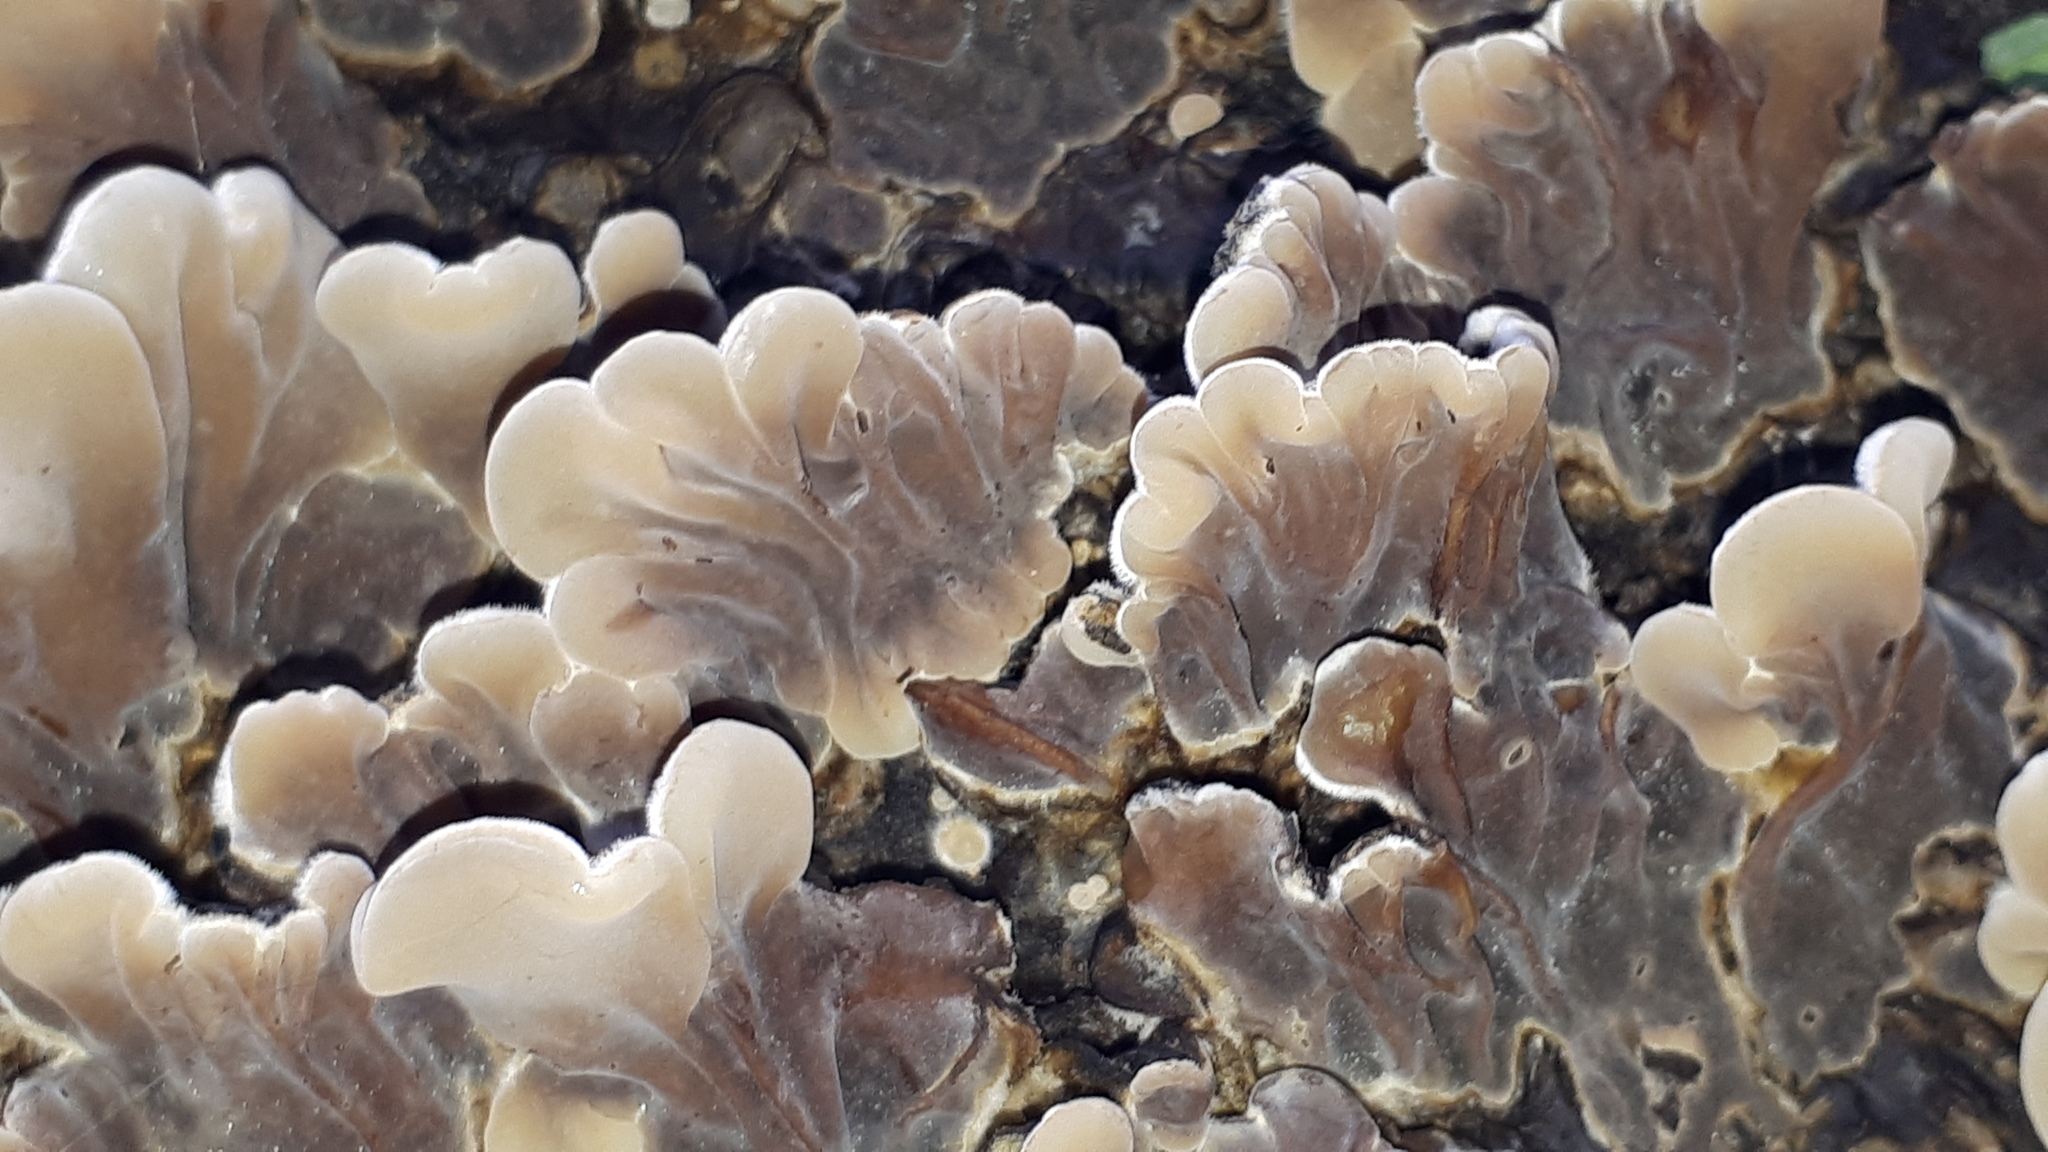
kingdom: Fungi
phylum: Basidiomycota
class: Agaricomycetes
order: Auriculariales
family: Auriculariaceae
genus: Auricularia
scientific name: Auricularia mesenterica
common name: Tripe fungus
